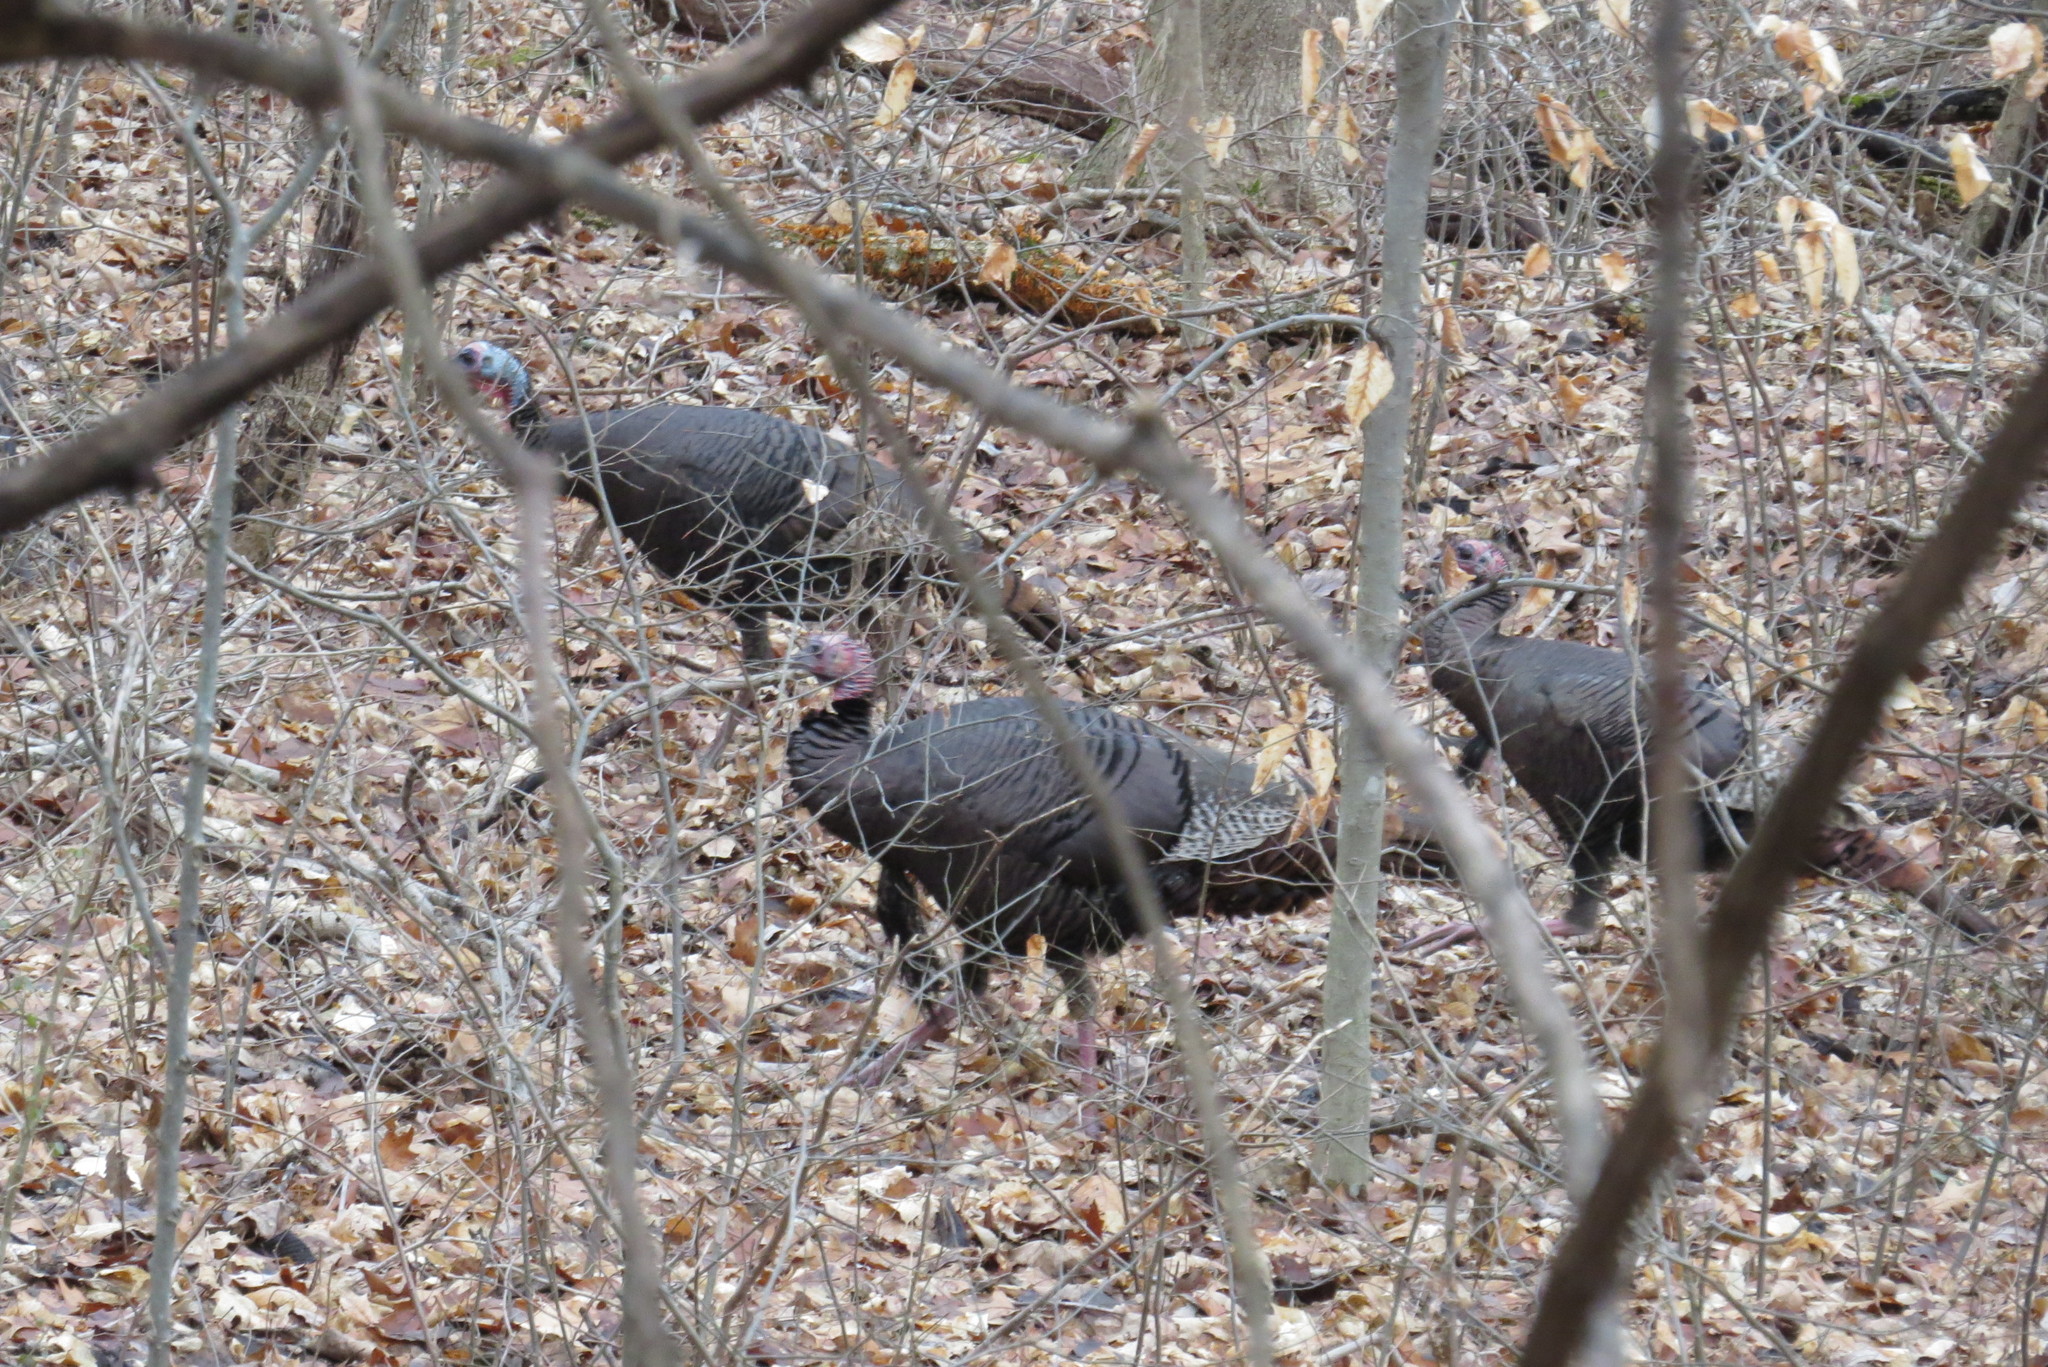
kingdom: Animalia
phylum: Chordata
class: Aves
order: Galliformes
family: Phasianidae
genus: Meleagris
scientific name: Meleagris gallopavo
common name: Wild turkey
